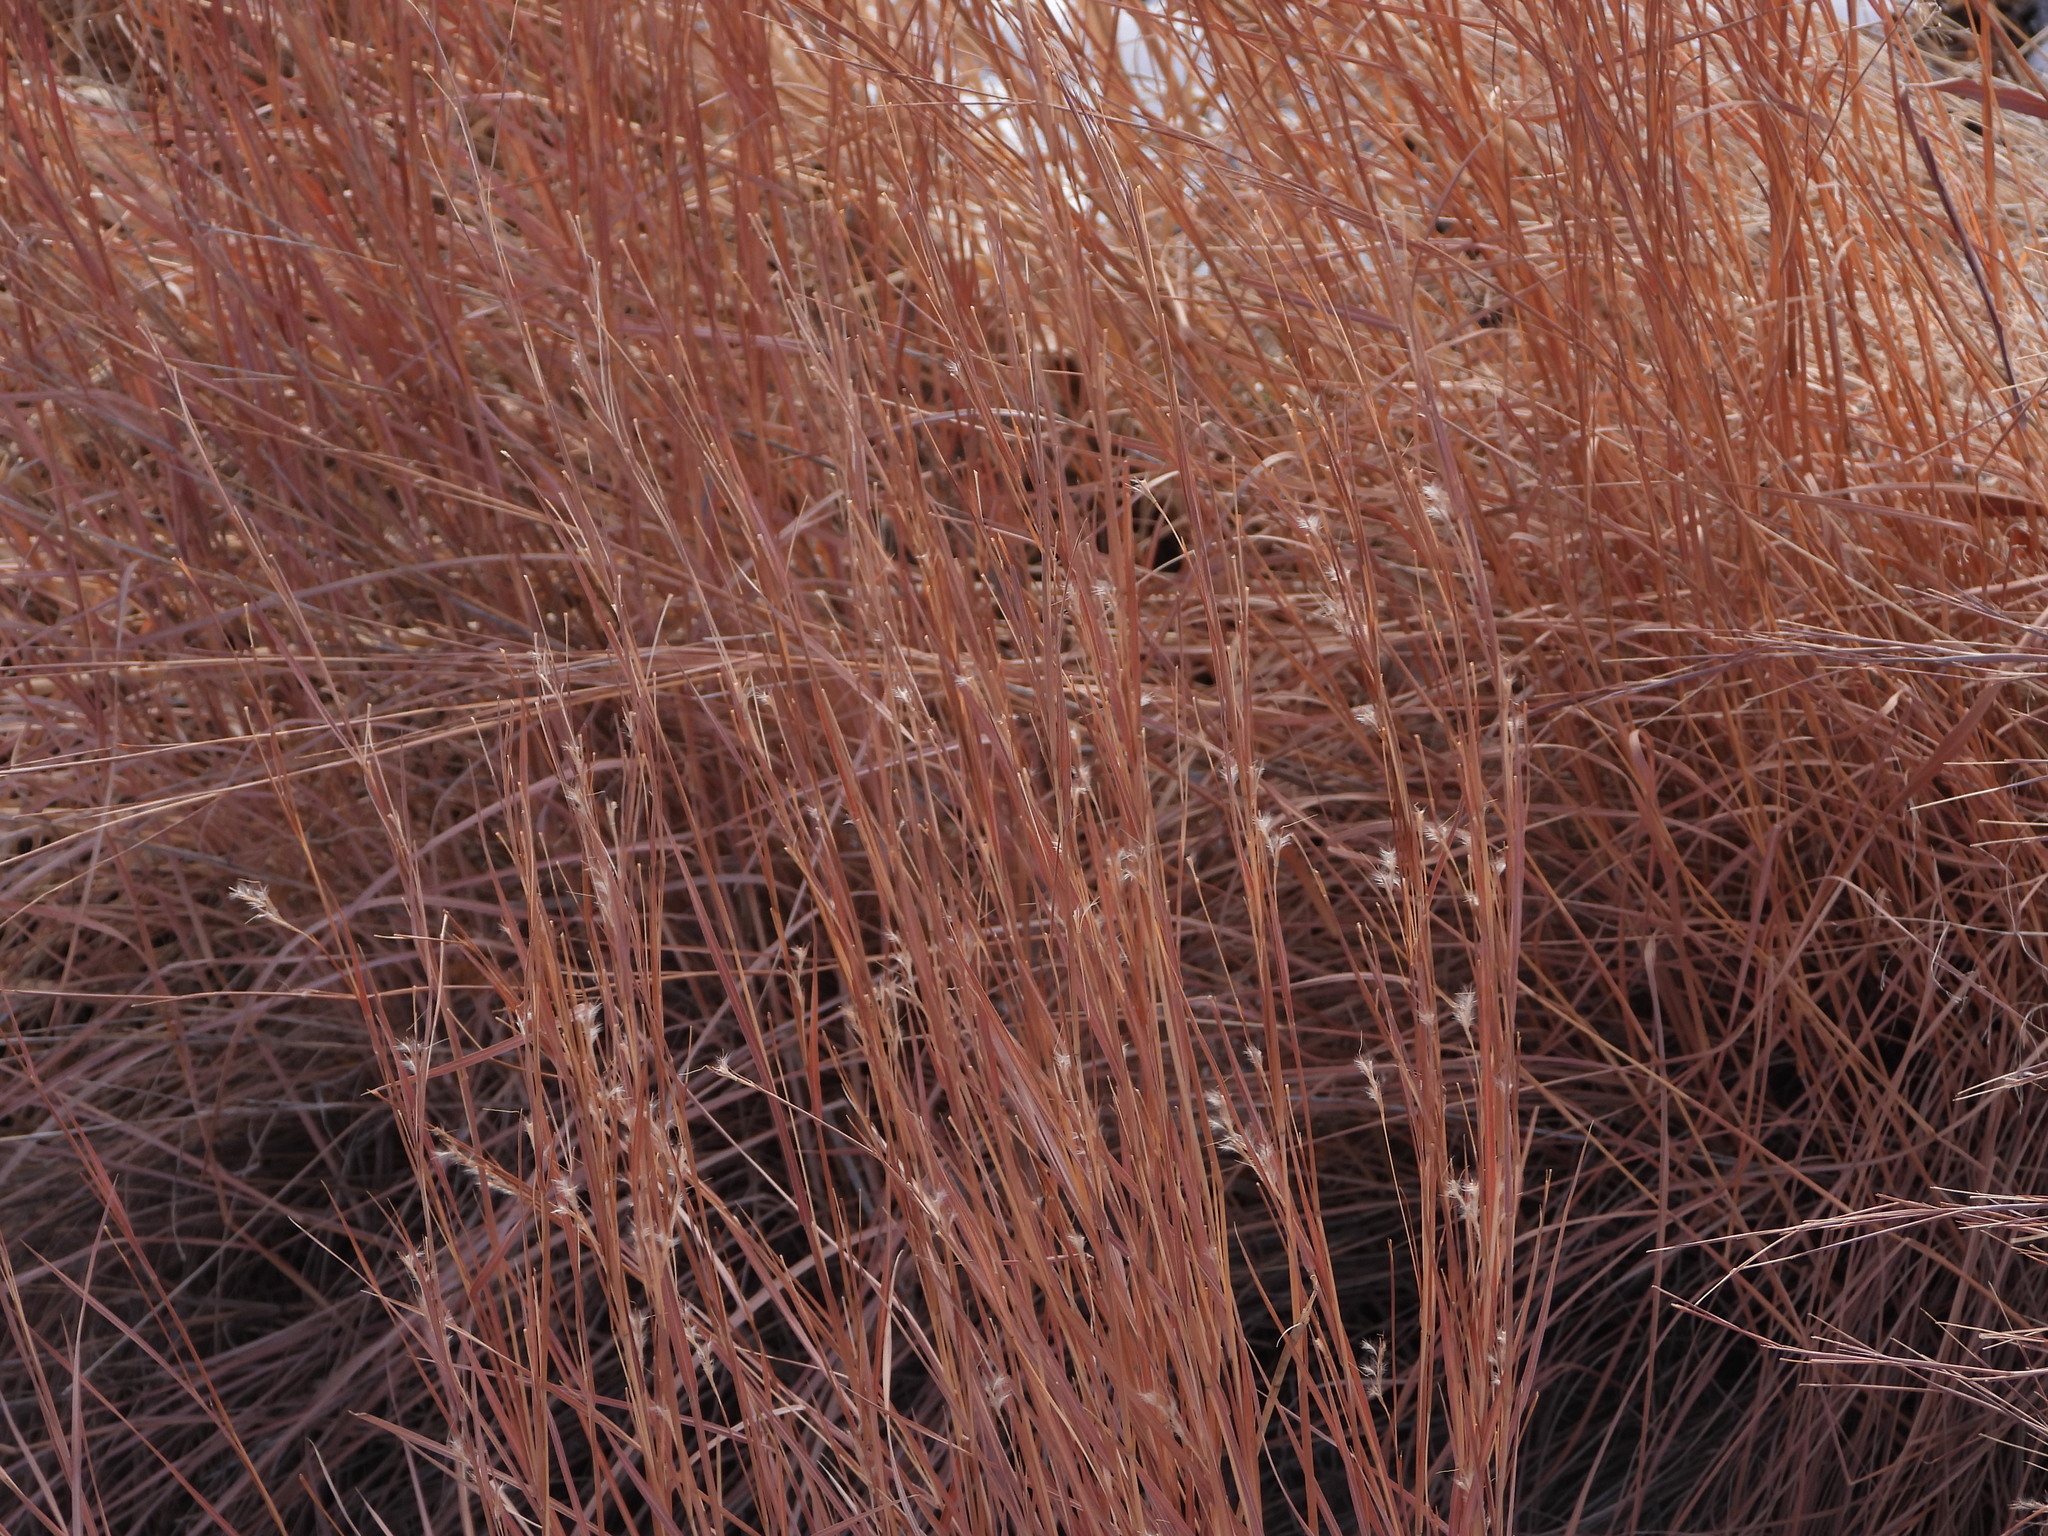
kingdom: Plantae
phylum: Tracheophyta
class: Liliopsida
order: Poales
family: Poaceae
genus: Schizachyrium
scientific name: Schizachyrium scoparium
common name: Little bluestem
